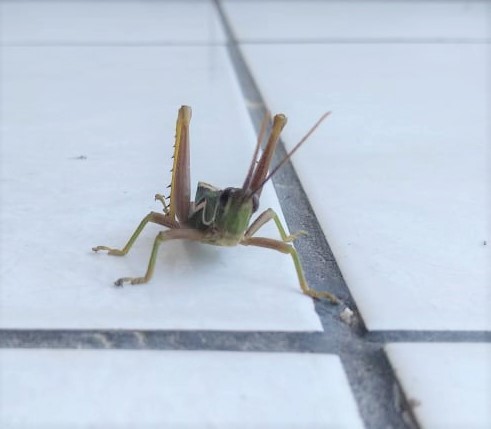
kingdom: Animalia
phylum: Arthropoda
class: Insecta
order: Orthoptera
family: Romaleidae
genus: Staleochlora
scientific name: Staleochlora fruhstorferi
